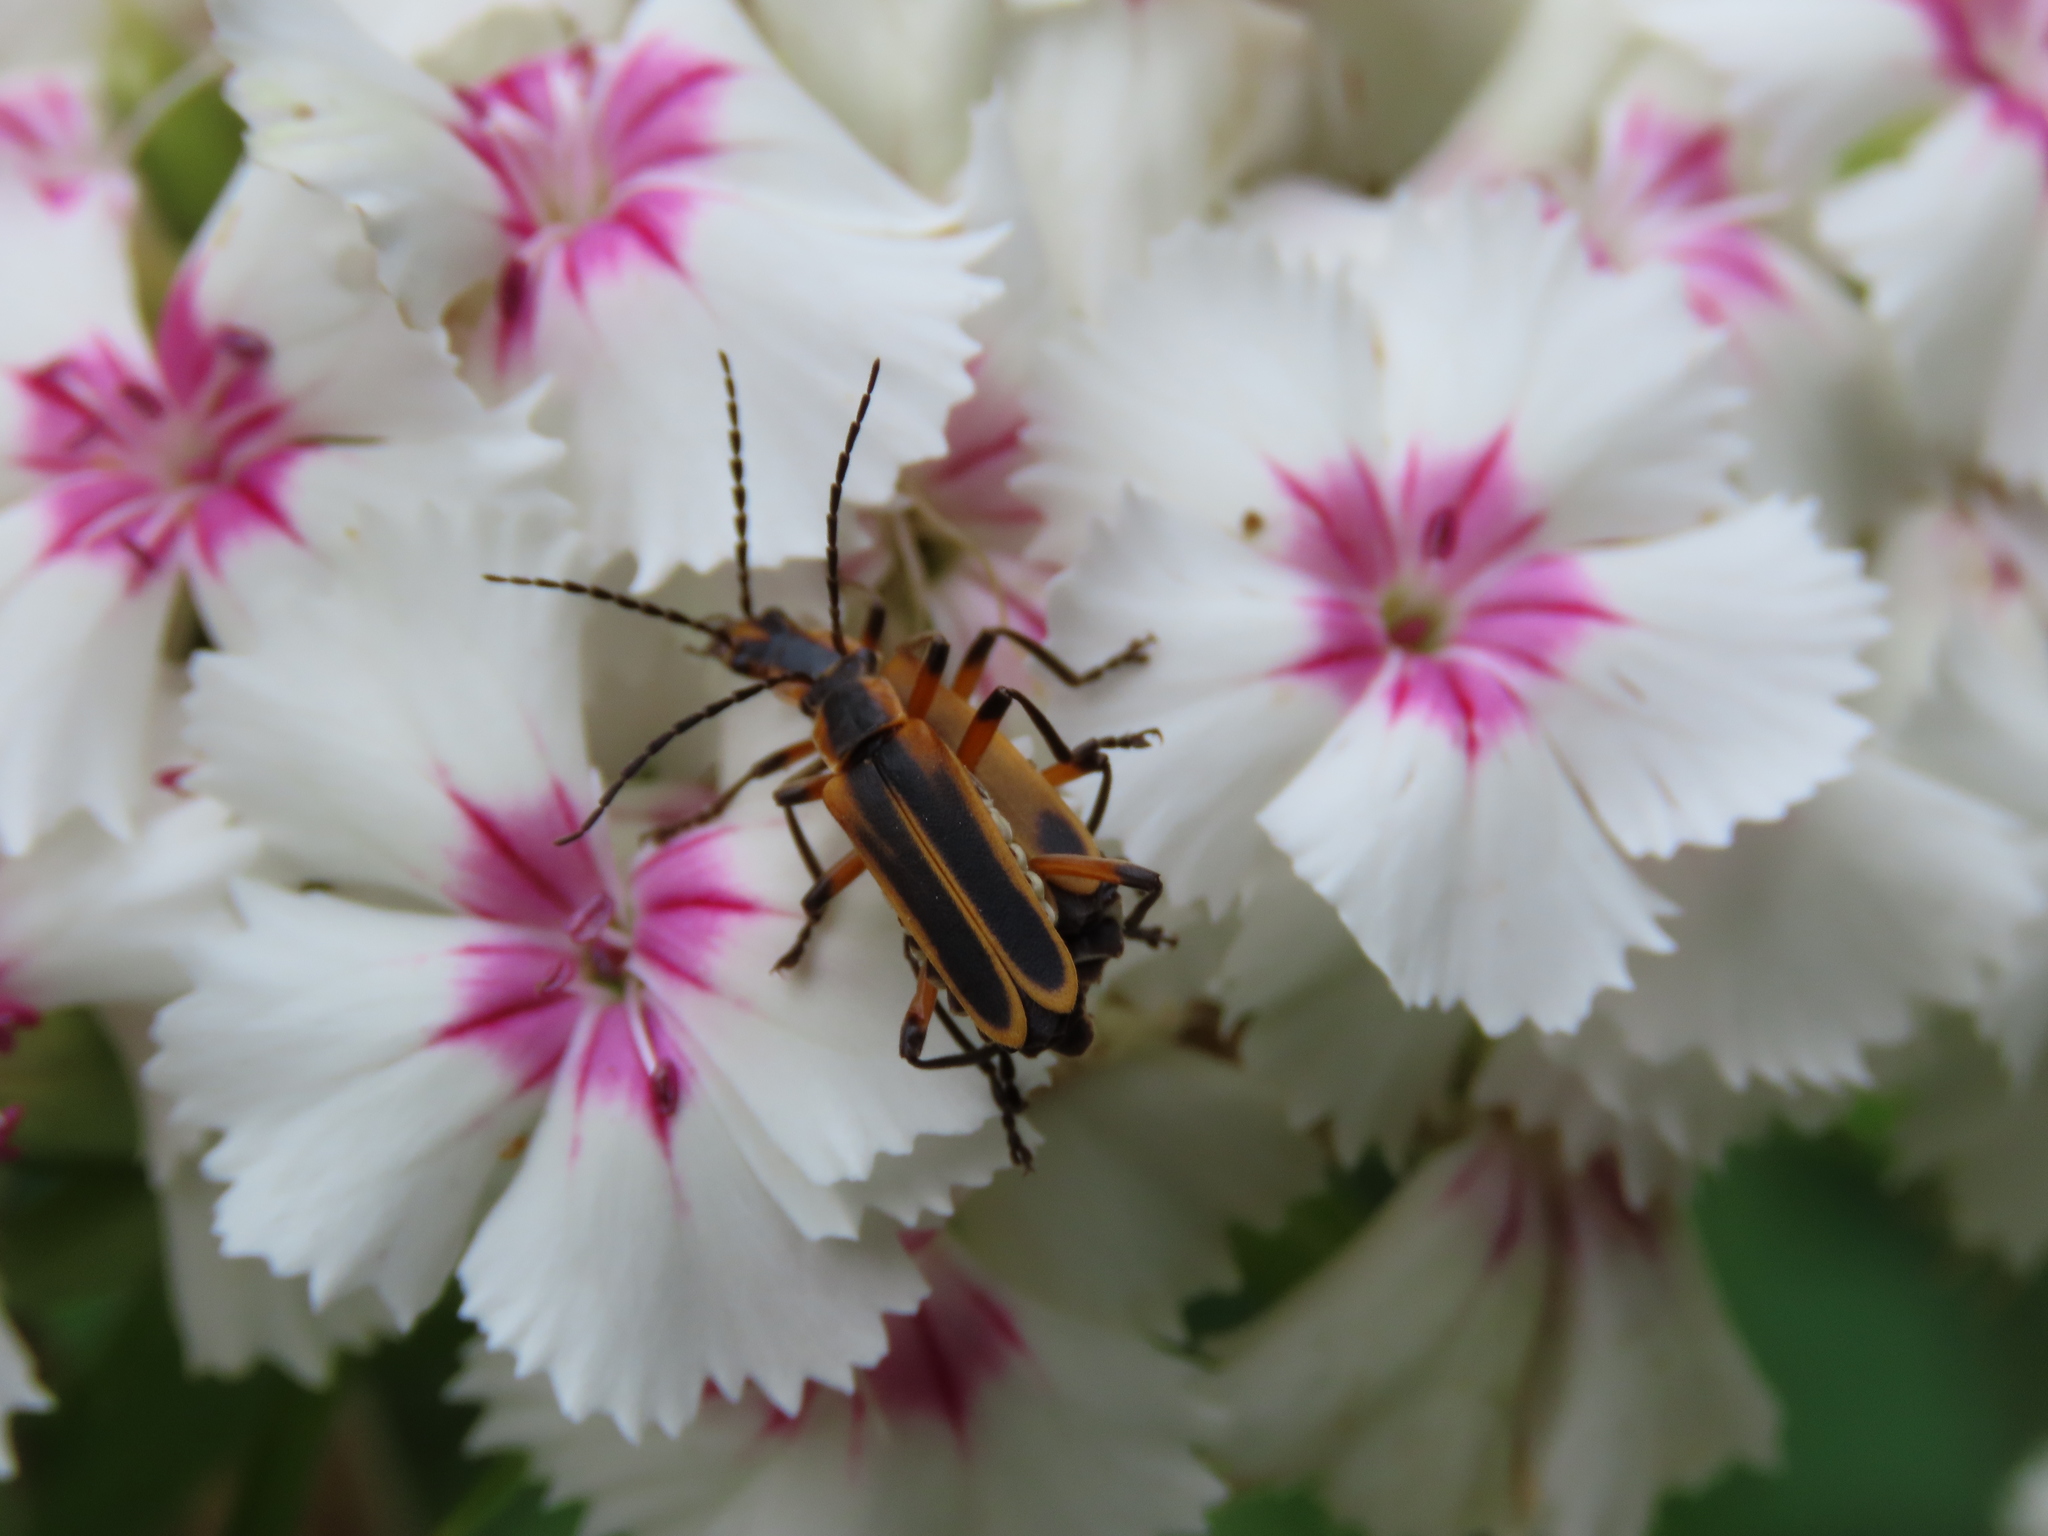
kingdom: Animalia
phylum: Arthropoda
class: Insecta
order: Coleoptera
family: Cantharidae
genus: Chauliognathus
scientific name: Chauliognathus marginatus
